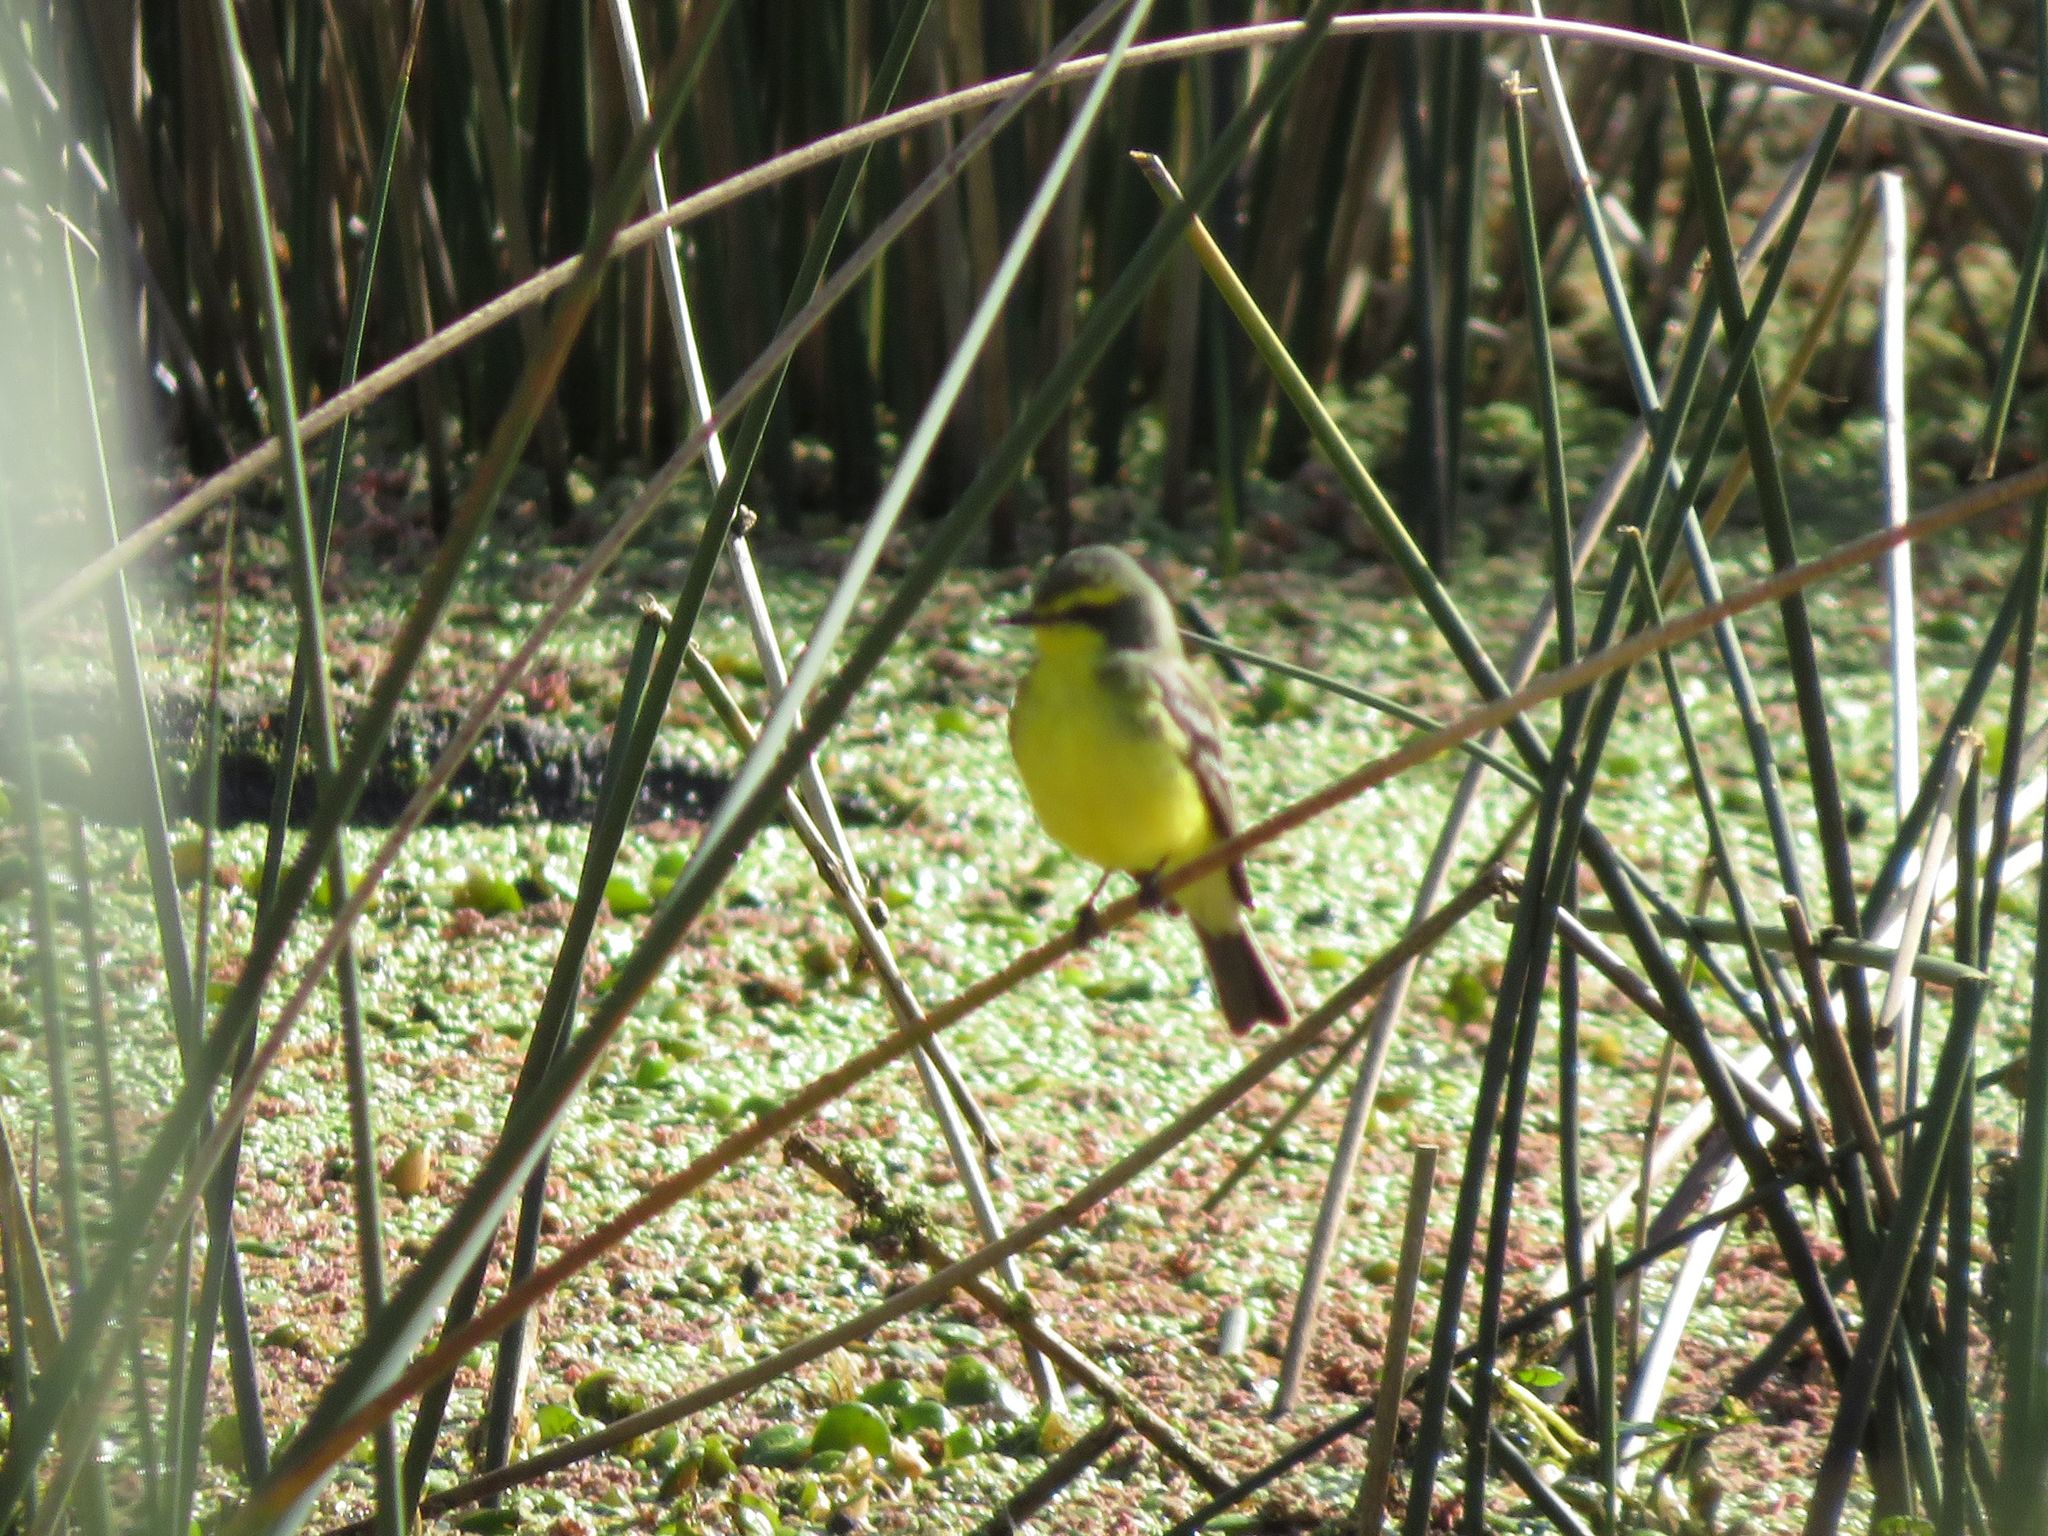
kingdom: Animalia
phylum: Chordata
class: Aves
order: Passeriformes
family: Tyrannidae
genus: Satrapa
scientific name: Satrapa icterophrys
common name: Yellow-browed tyrant
